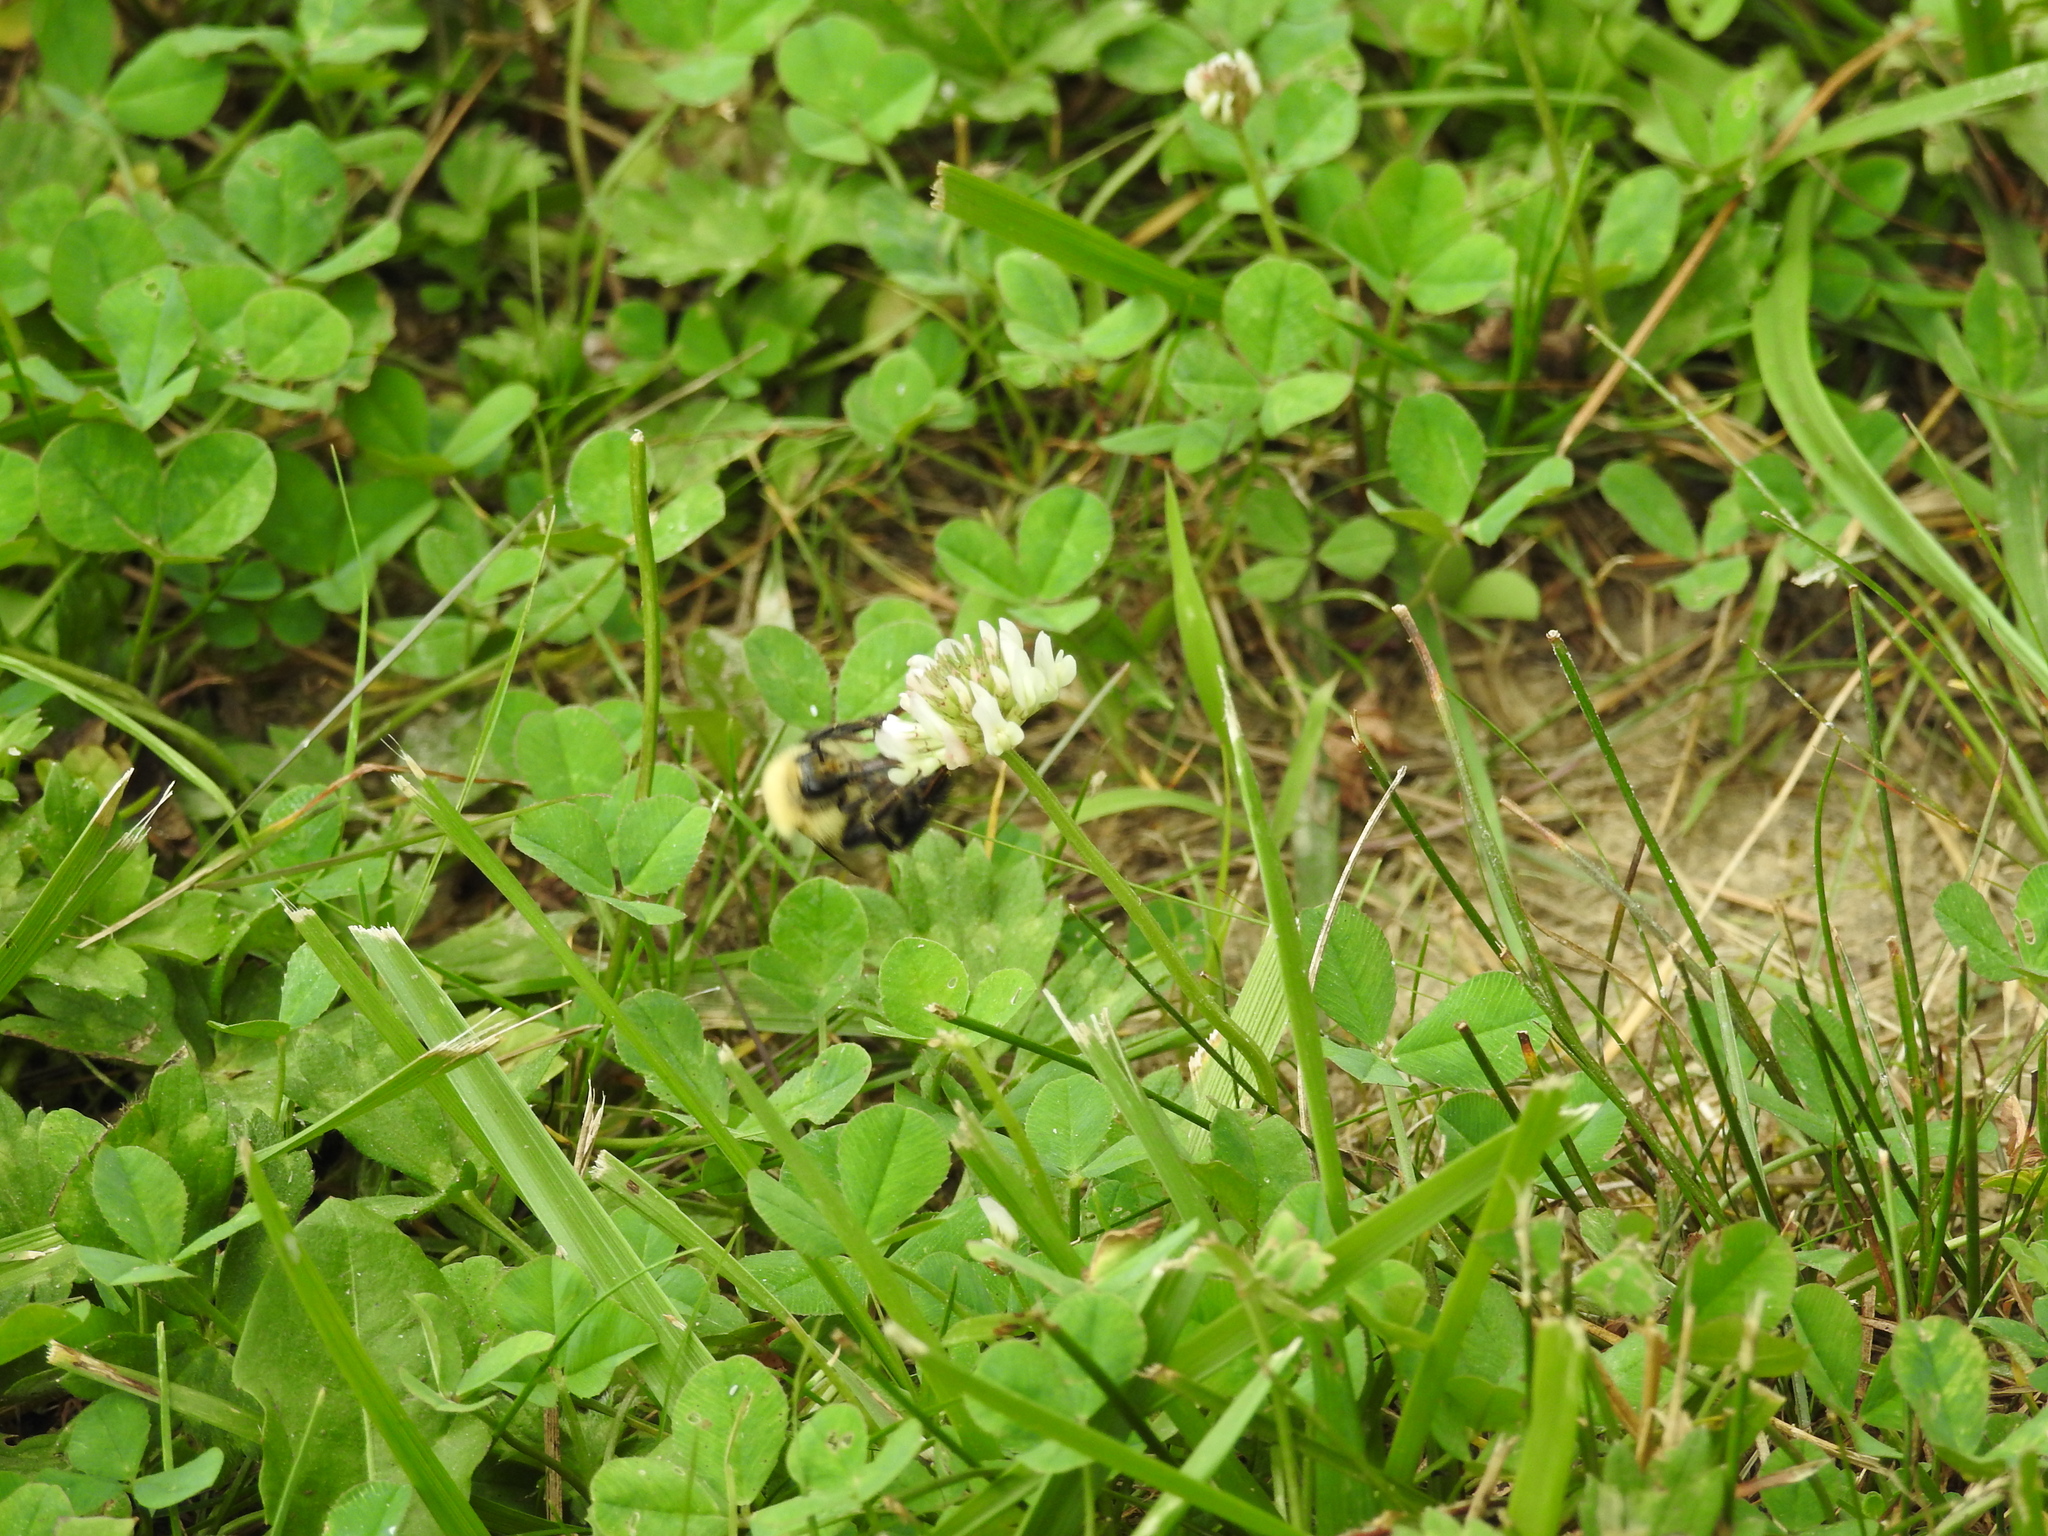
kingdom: Animalia
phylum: Arthropoda
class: Insecta
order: Hymenoptera
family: Apidae
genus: Pyrobombus
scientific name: Pyrobombus
